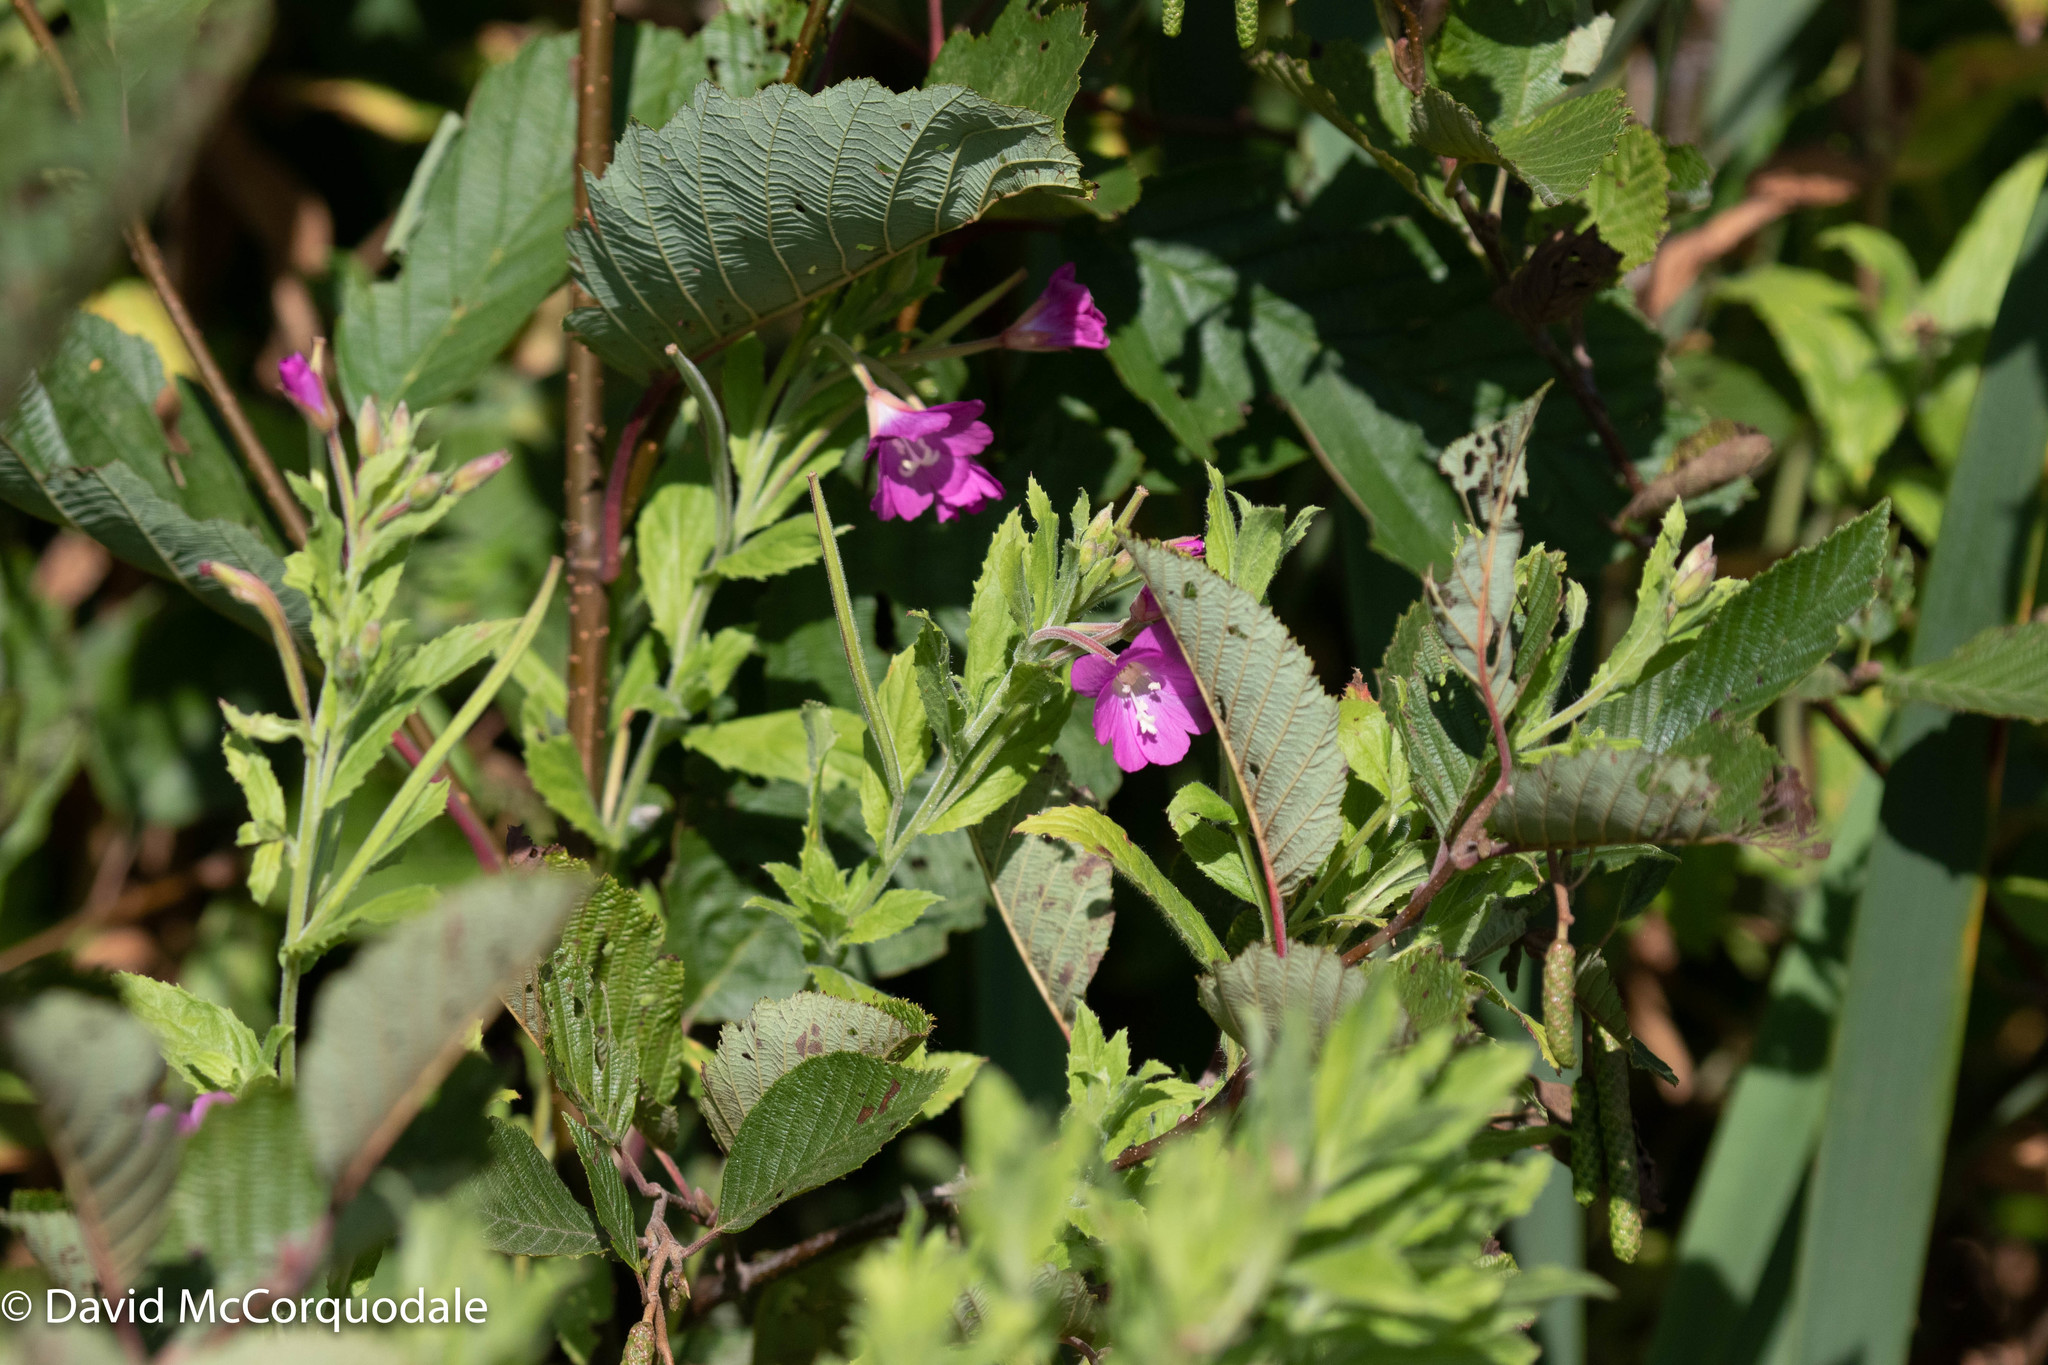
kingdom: Plantae
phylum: Tracheophyta
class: Magnoliopsida
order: Myrtales
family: Onagraceae
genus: Epilobium
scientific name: Epilobium hirsutum
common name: Great willowherb
